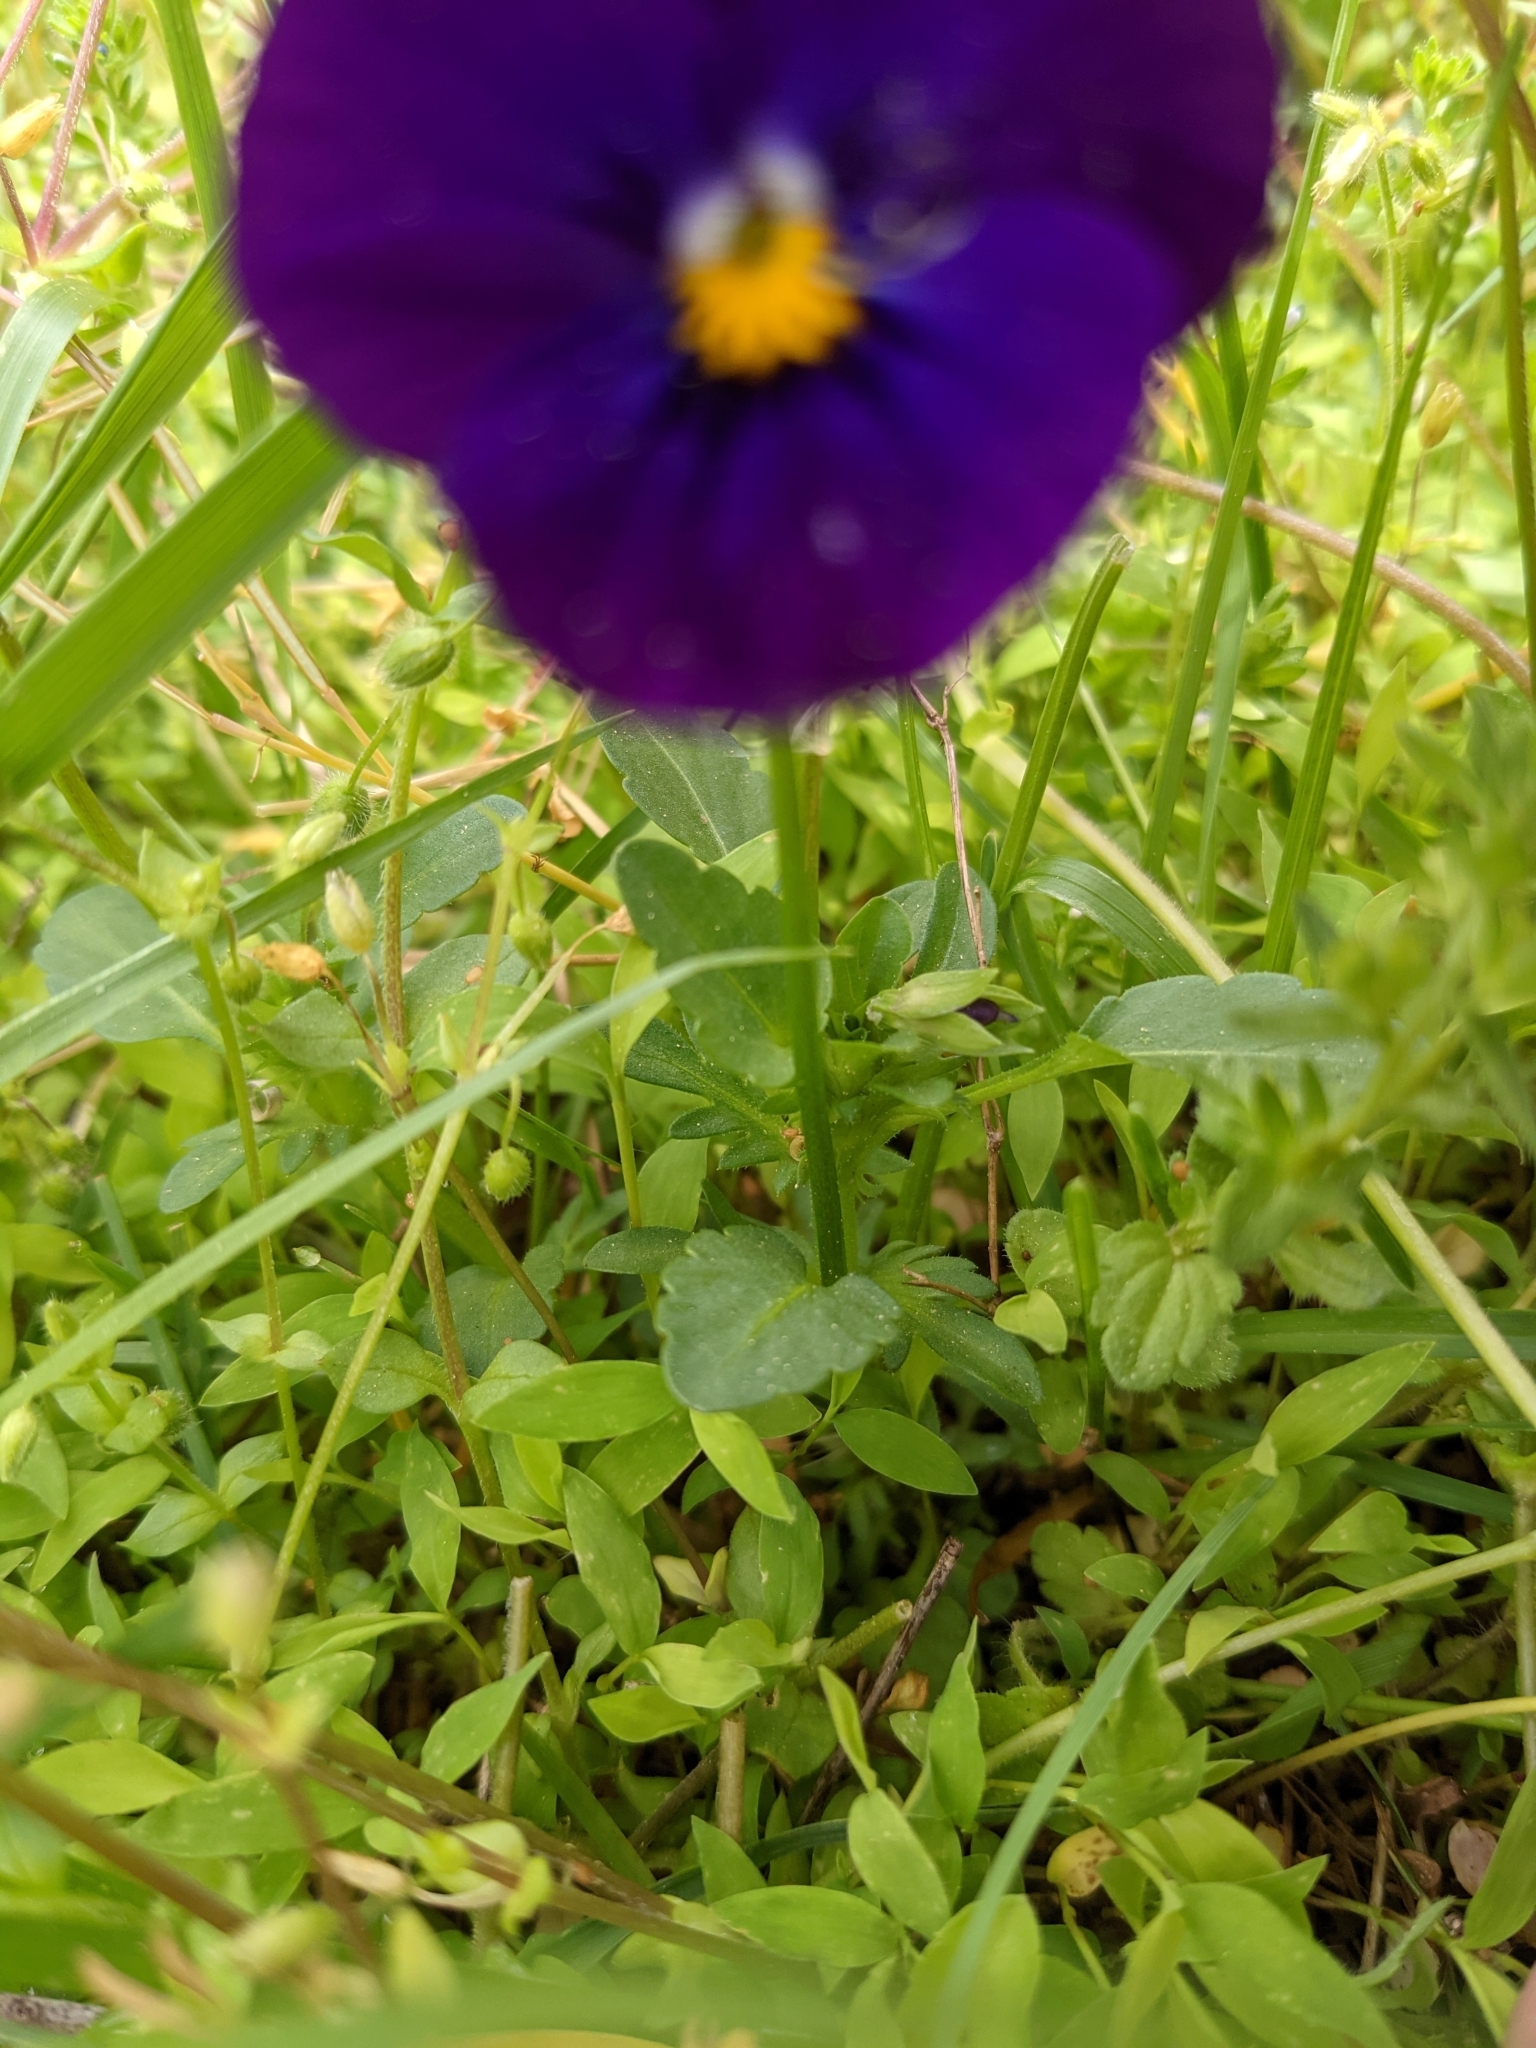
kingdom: Plantae
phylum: Tracheophyta
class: Magnoliopsida
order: Malpighiales
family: Violaceae
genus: Viola
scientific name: Viola wittrockiana
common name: Garden pansy
